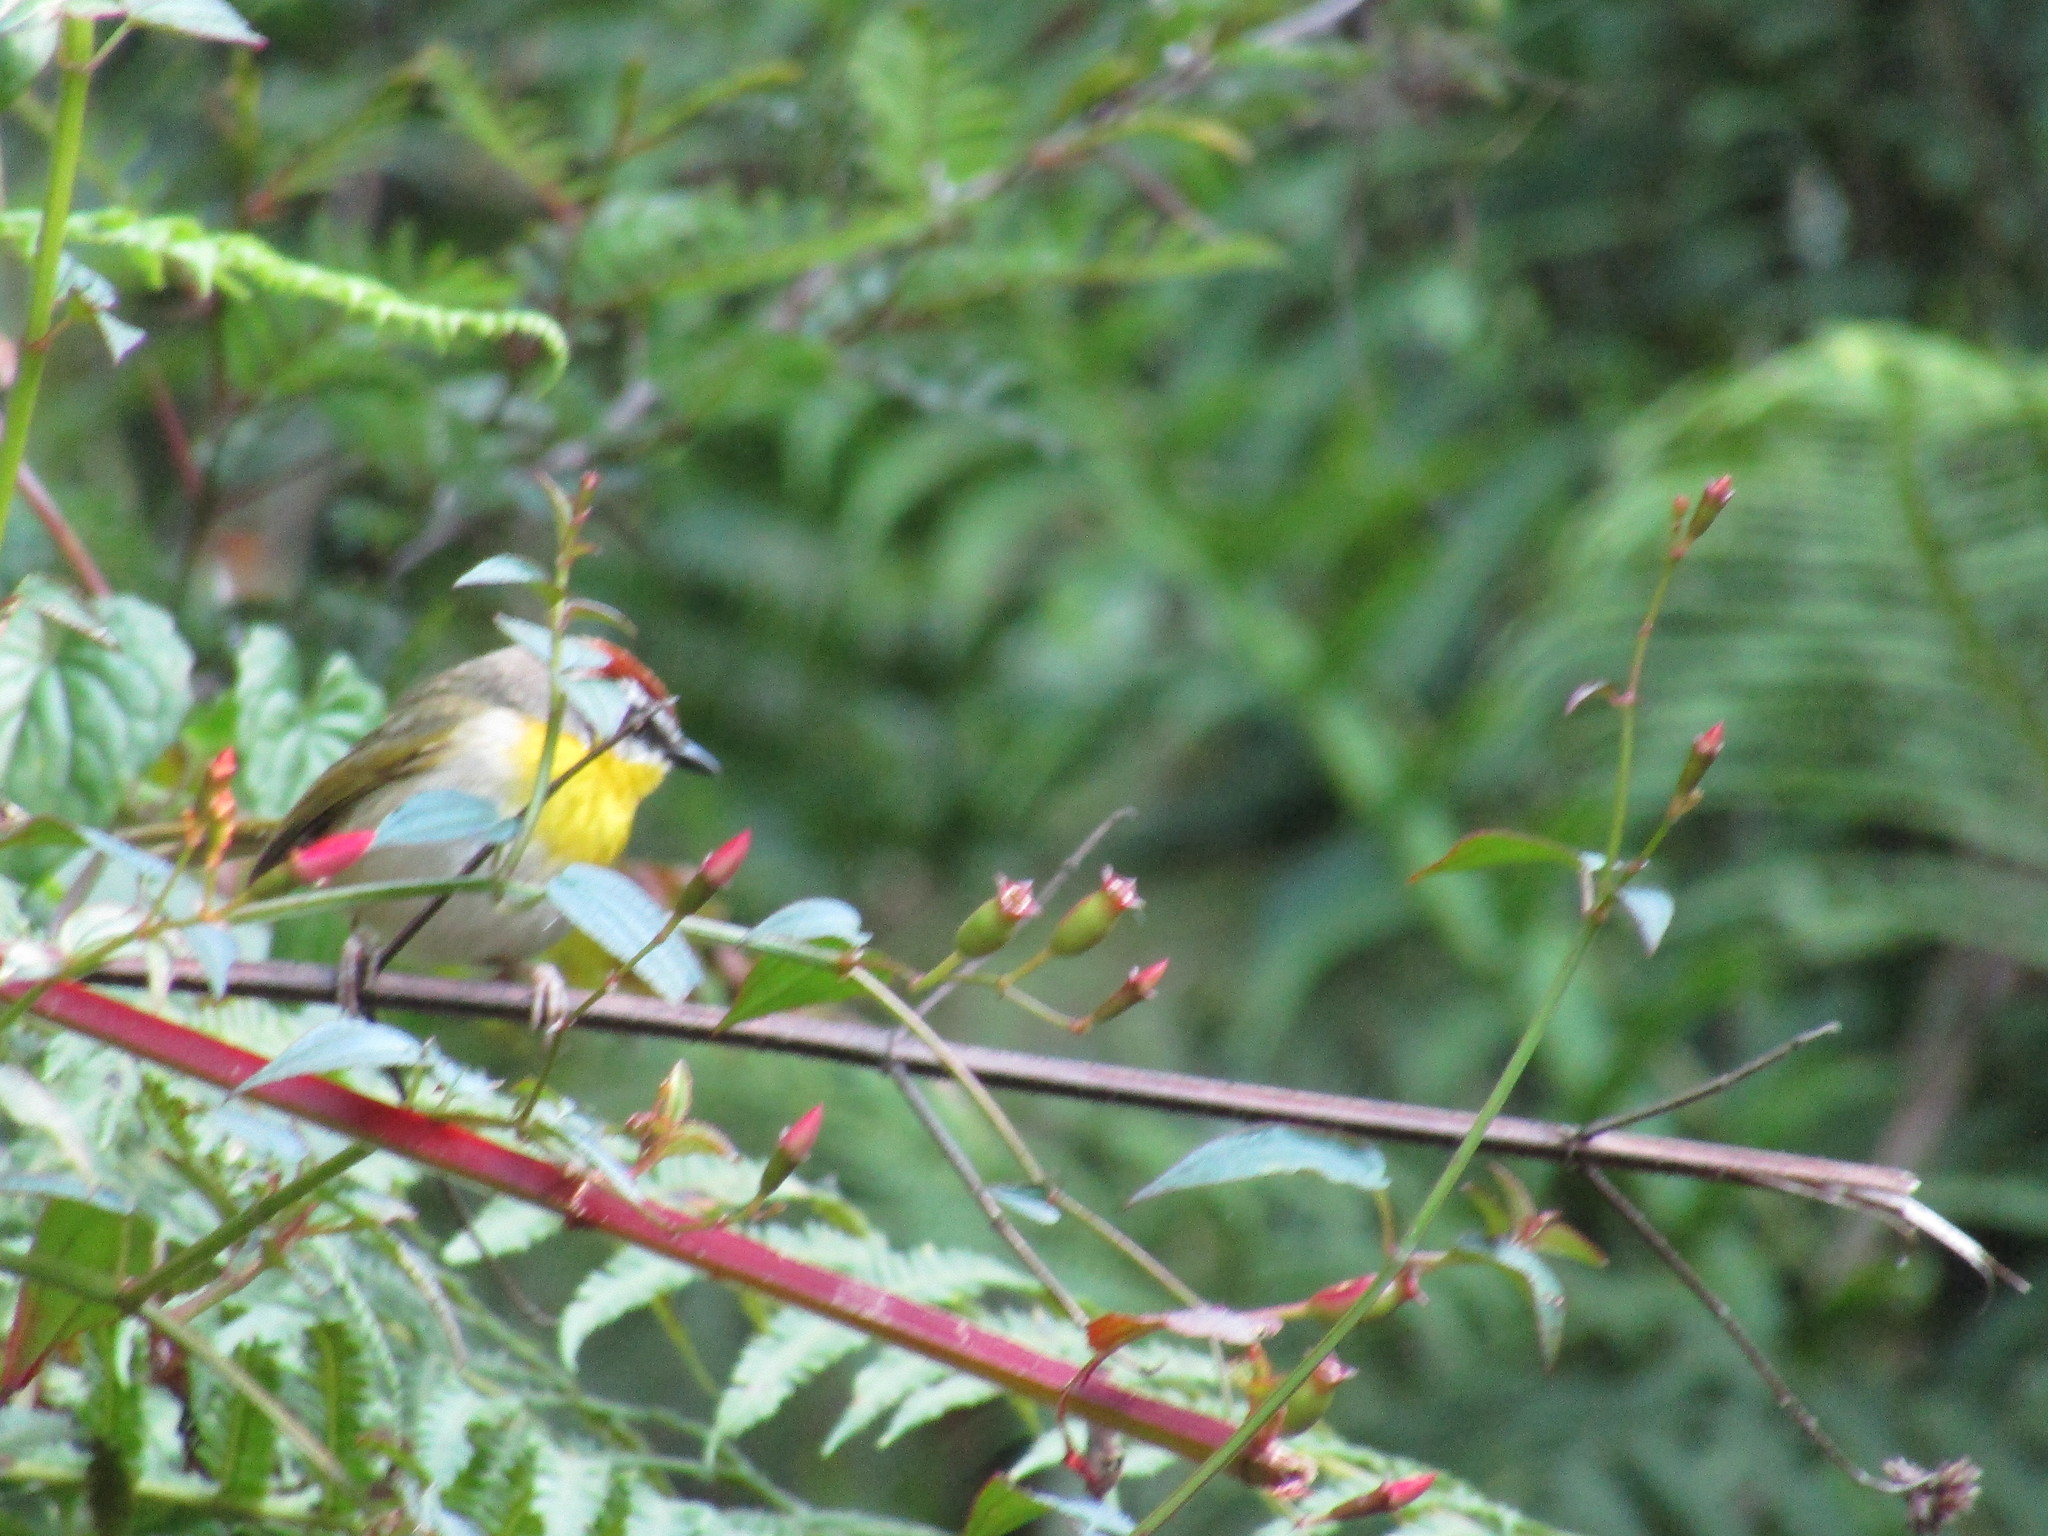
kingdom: Animalia
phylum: Chordata
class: Aves
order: Passeriformes
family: Parulidae
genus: Basileuterus
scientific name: Basileuterus rufifrons
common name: Rufous-capped warbler
